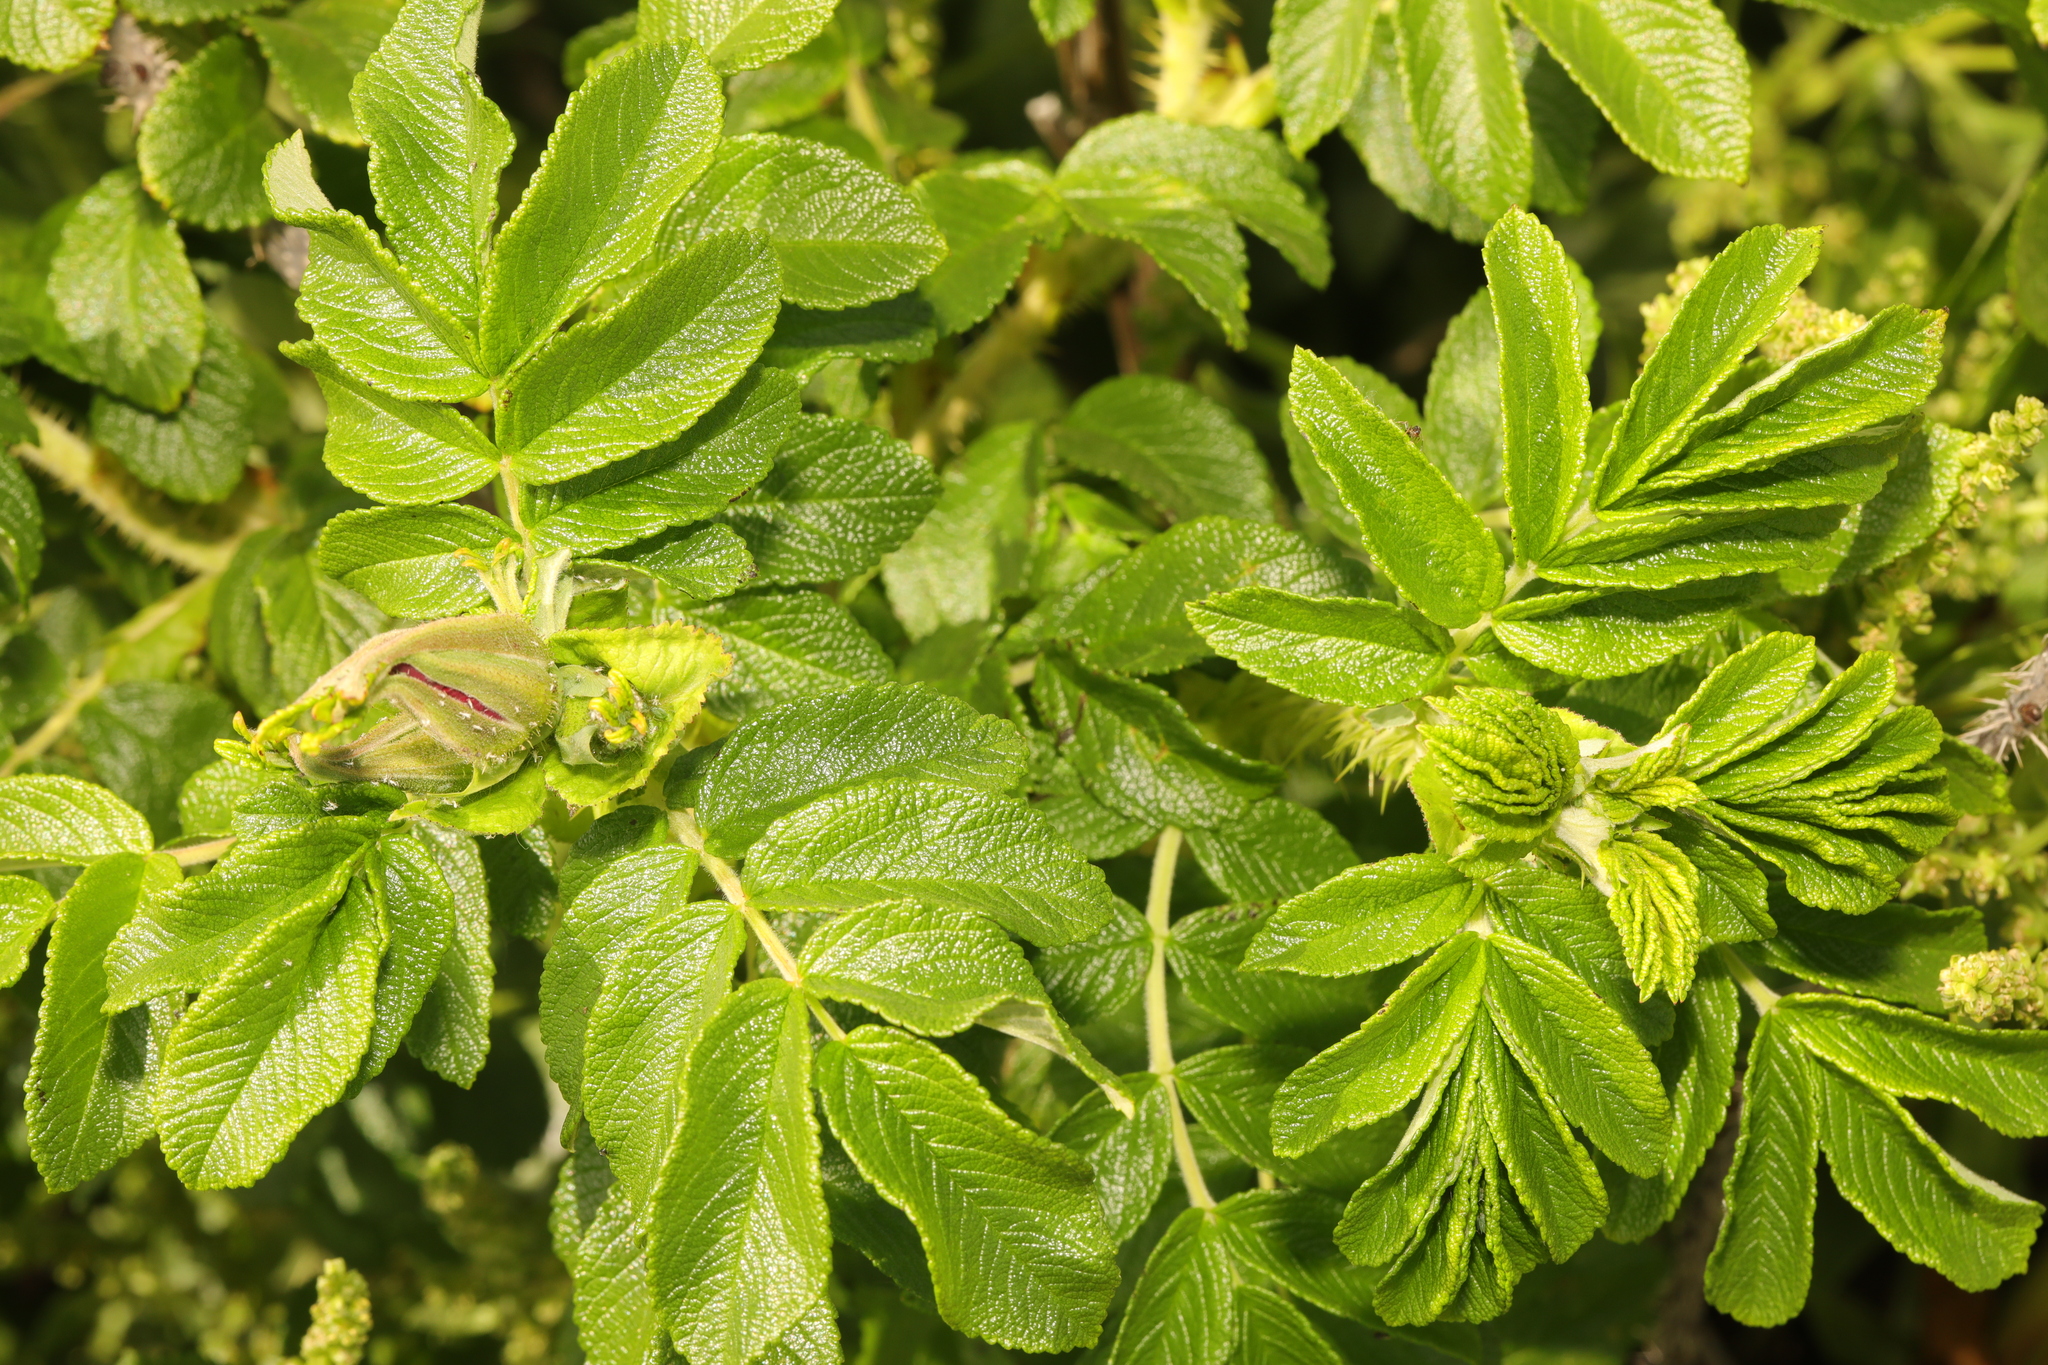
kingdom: Plantae
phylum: Tracheophyta
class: Magnoliopsida
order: Rosales
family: Rosaceae
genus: Rosa
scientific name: Rosa rugosa
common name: Japanese rose
